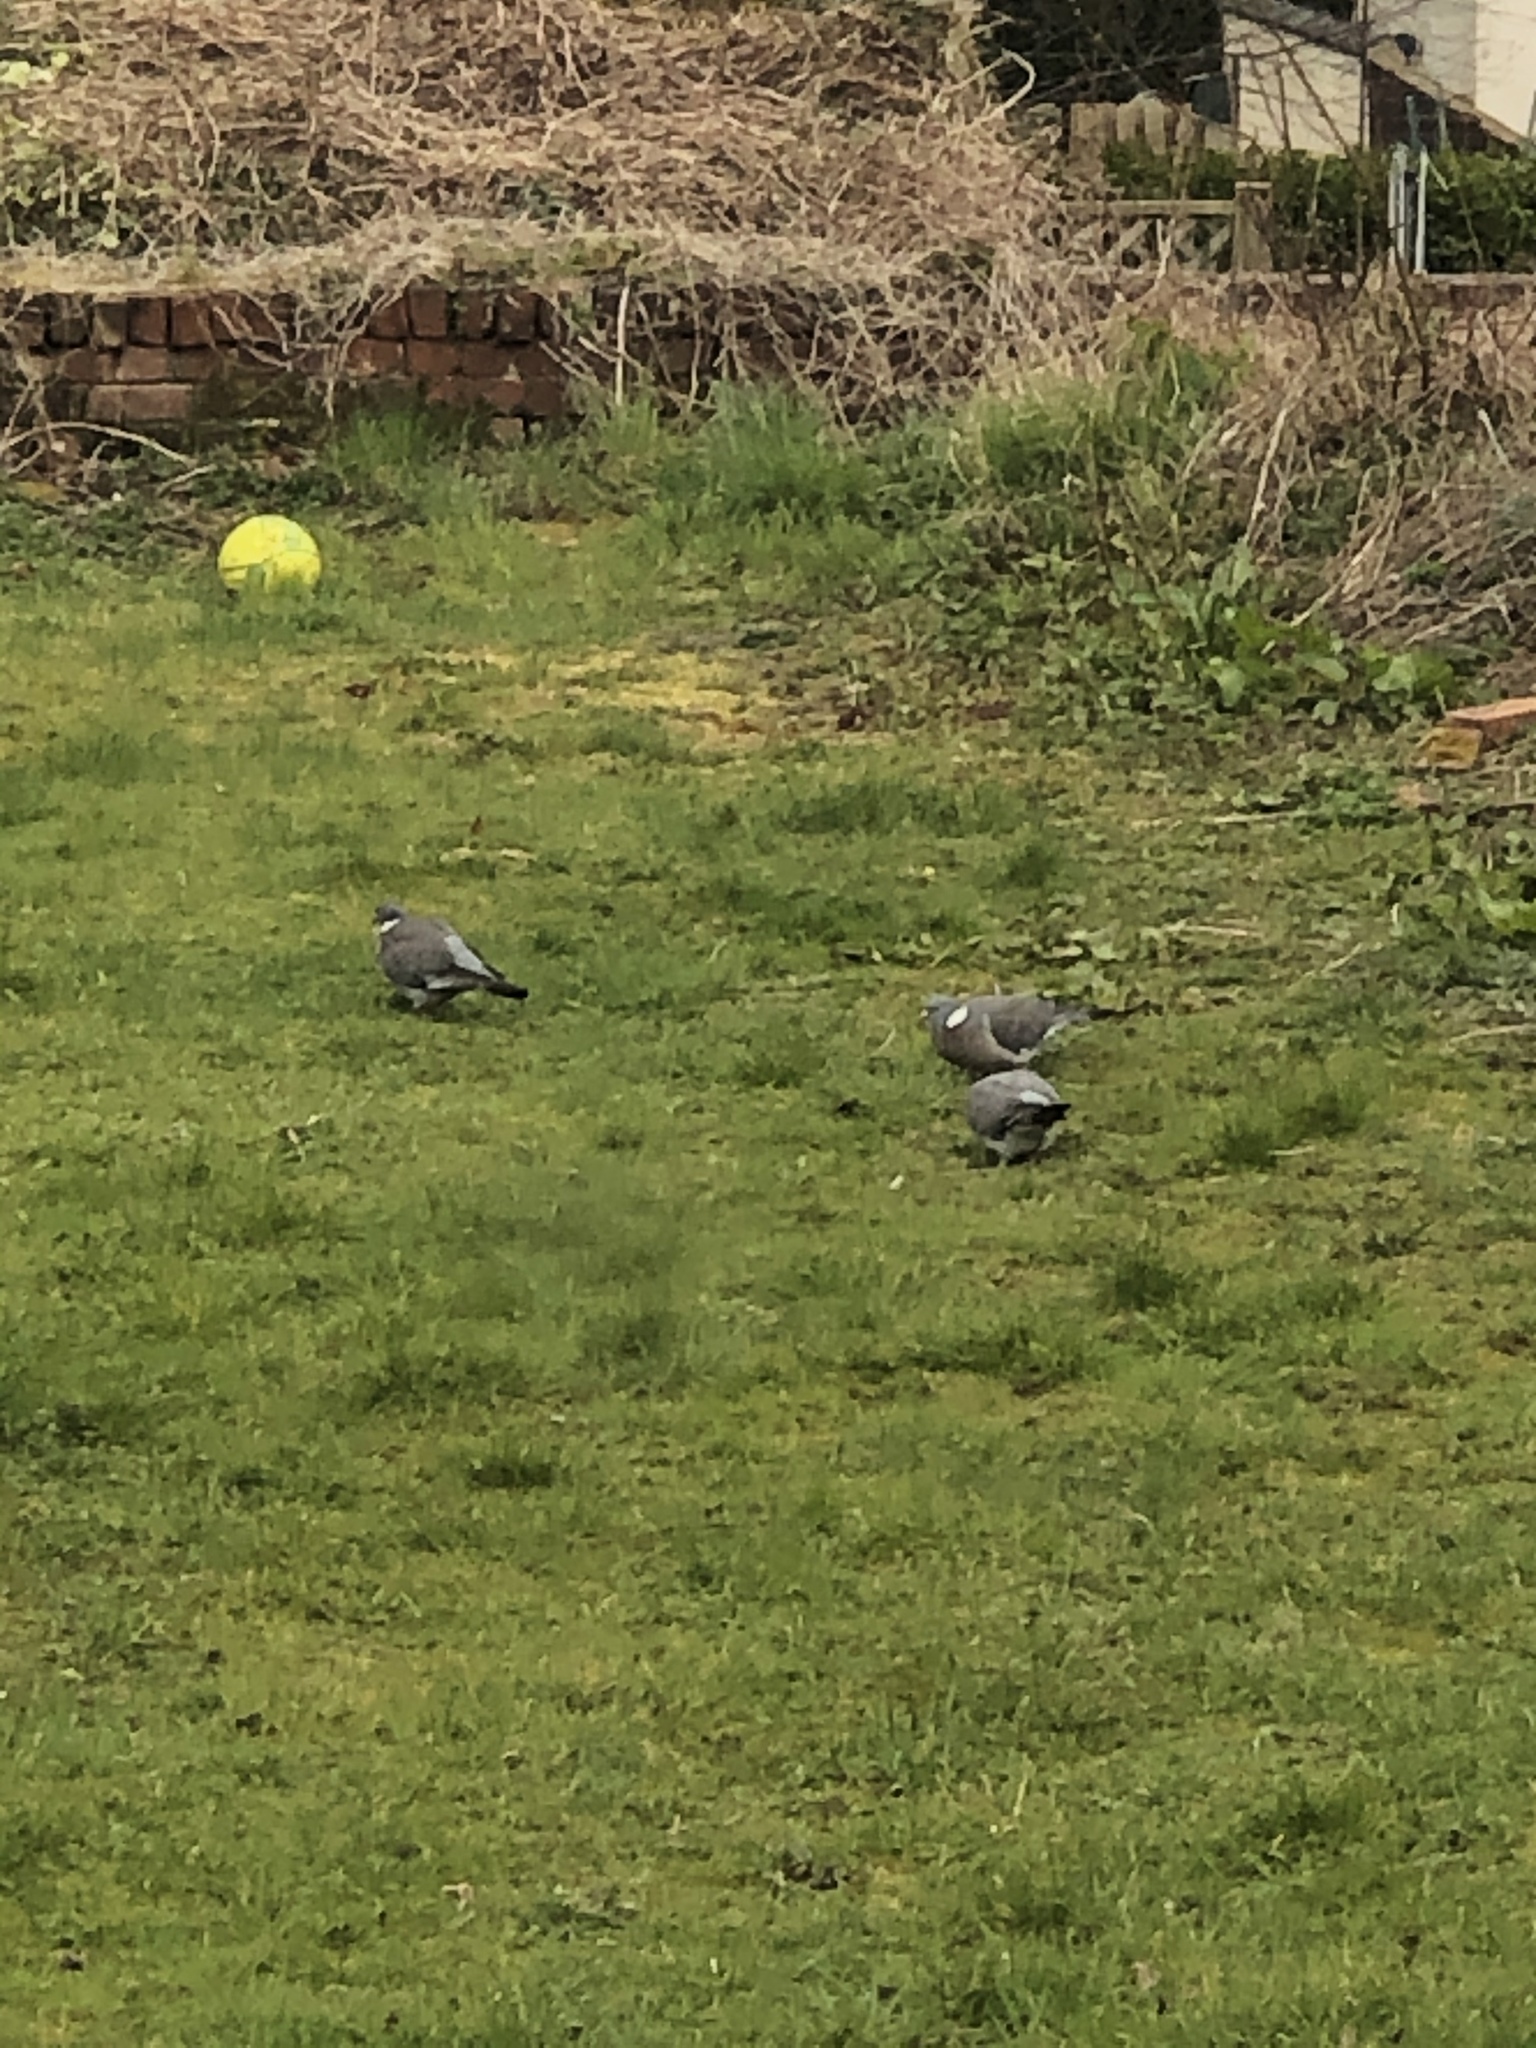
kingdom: Animalia
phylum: Chordata
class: Aves
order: Columbiformes
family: Columbidae
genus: Columba
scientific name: Columba palumbus
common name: Common wood pigeon
